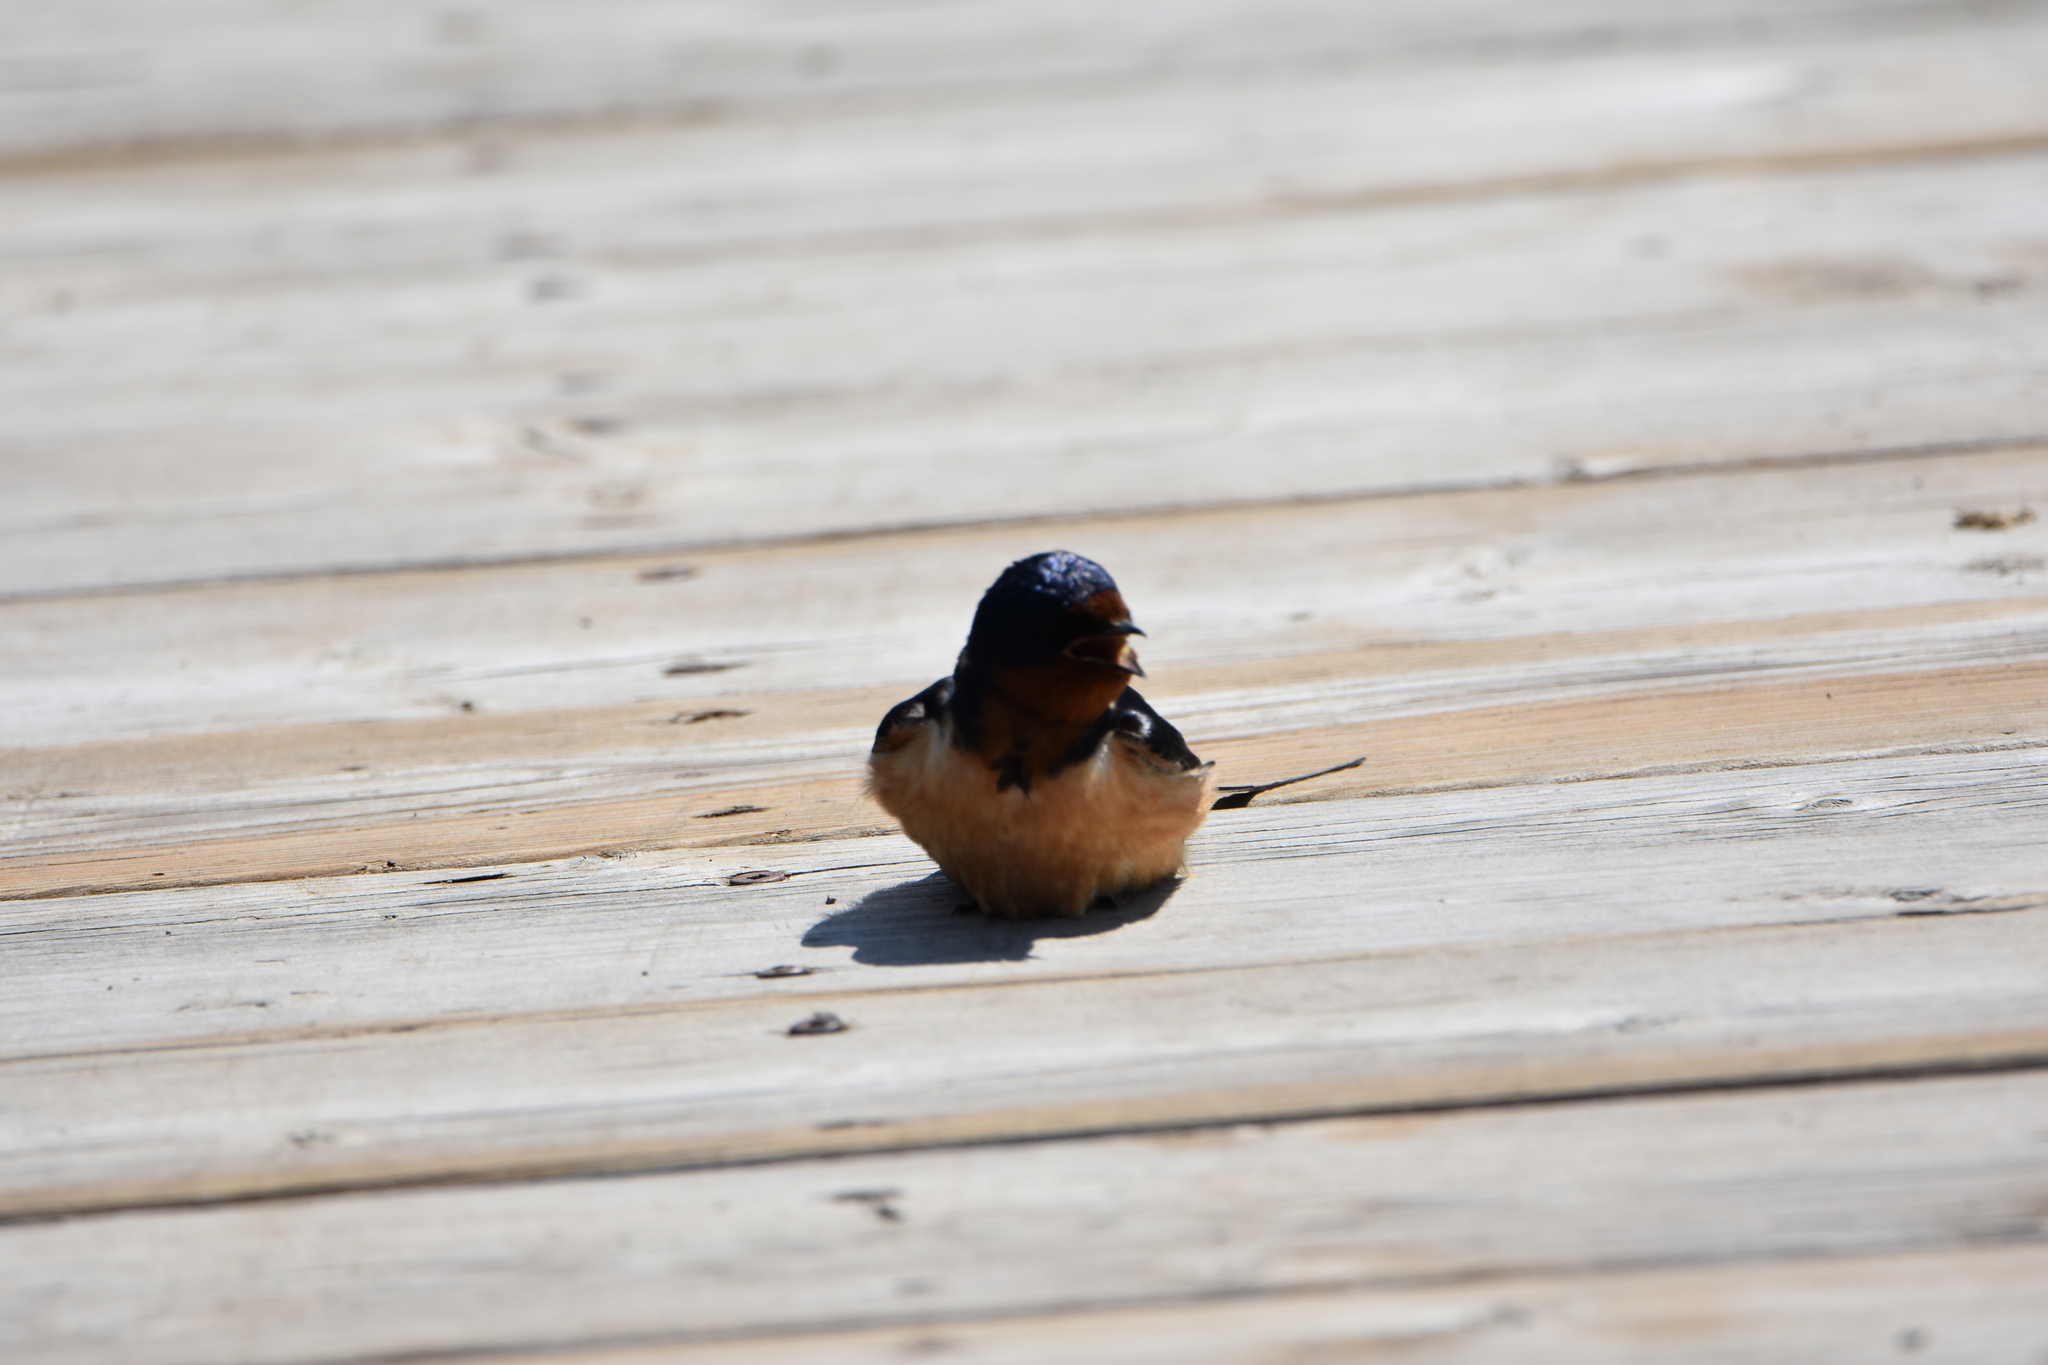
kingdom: Animalia
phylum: Chordata
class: Aves
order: Passeriformes
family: Hirundinidae
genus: Hirundo
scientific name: Hirundo rustica
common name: Barn swallow
